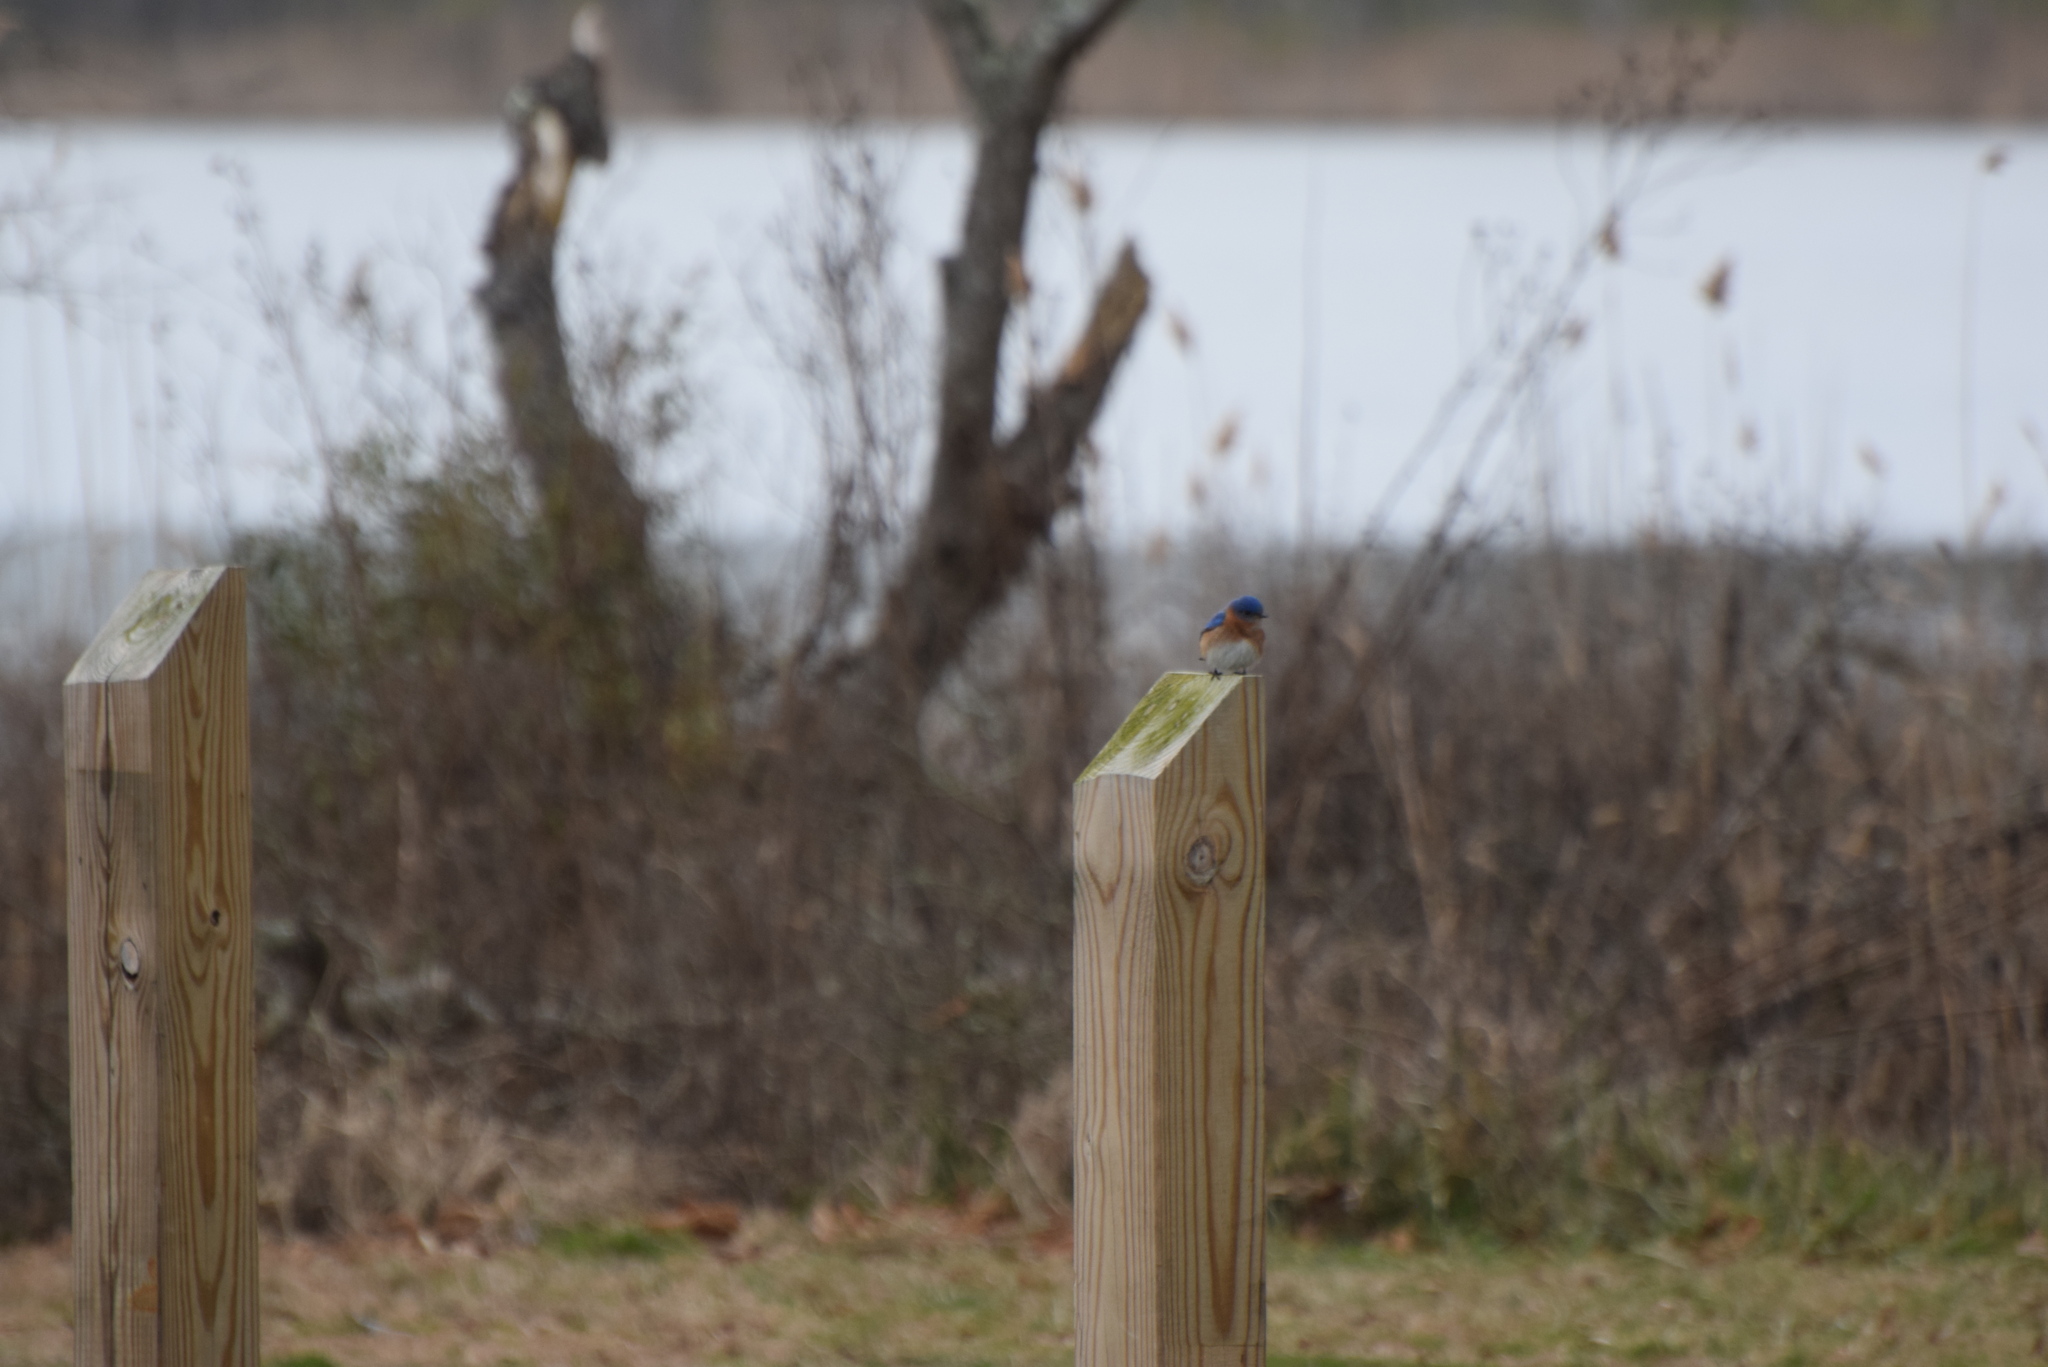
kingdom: Animalia
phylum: Chordata
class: Aves
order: Passeriformes
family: Turdidae
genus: Sialia
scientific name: Sialia sialis
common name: Eastern bluebird
